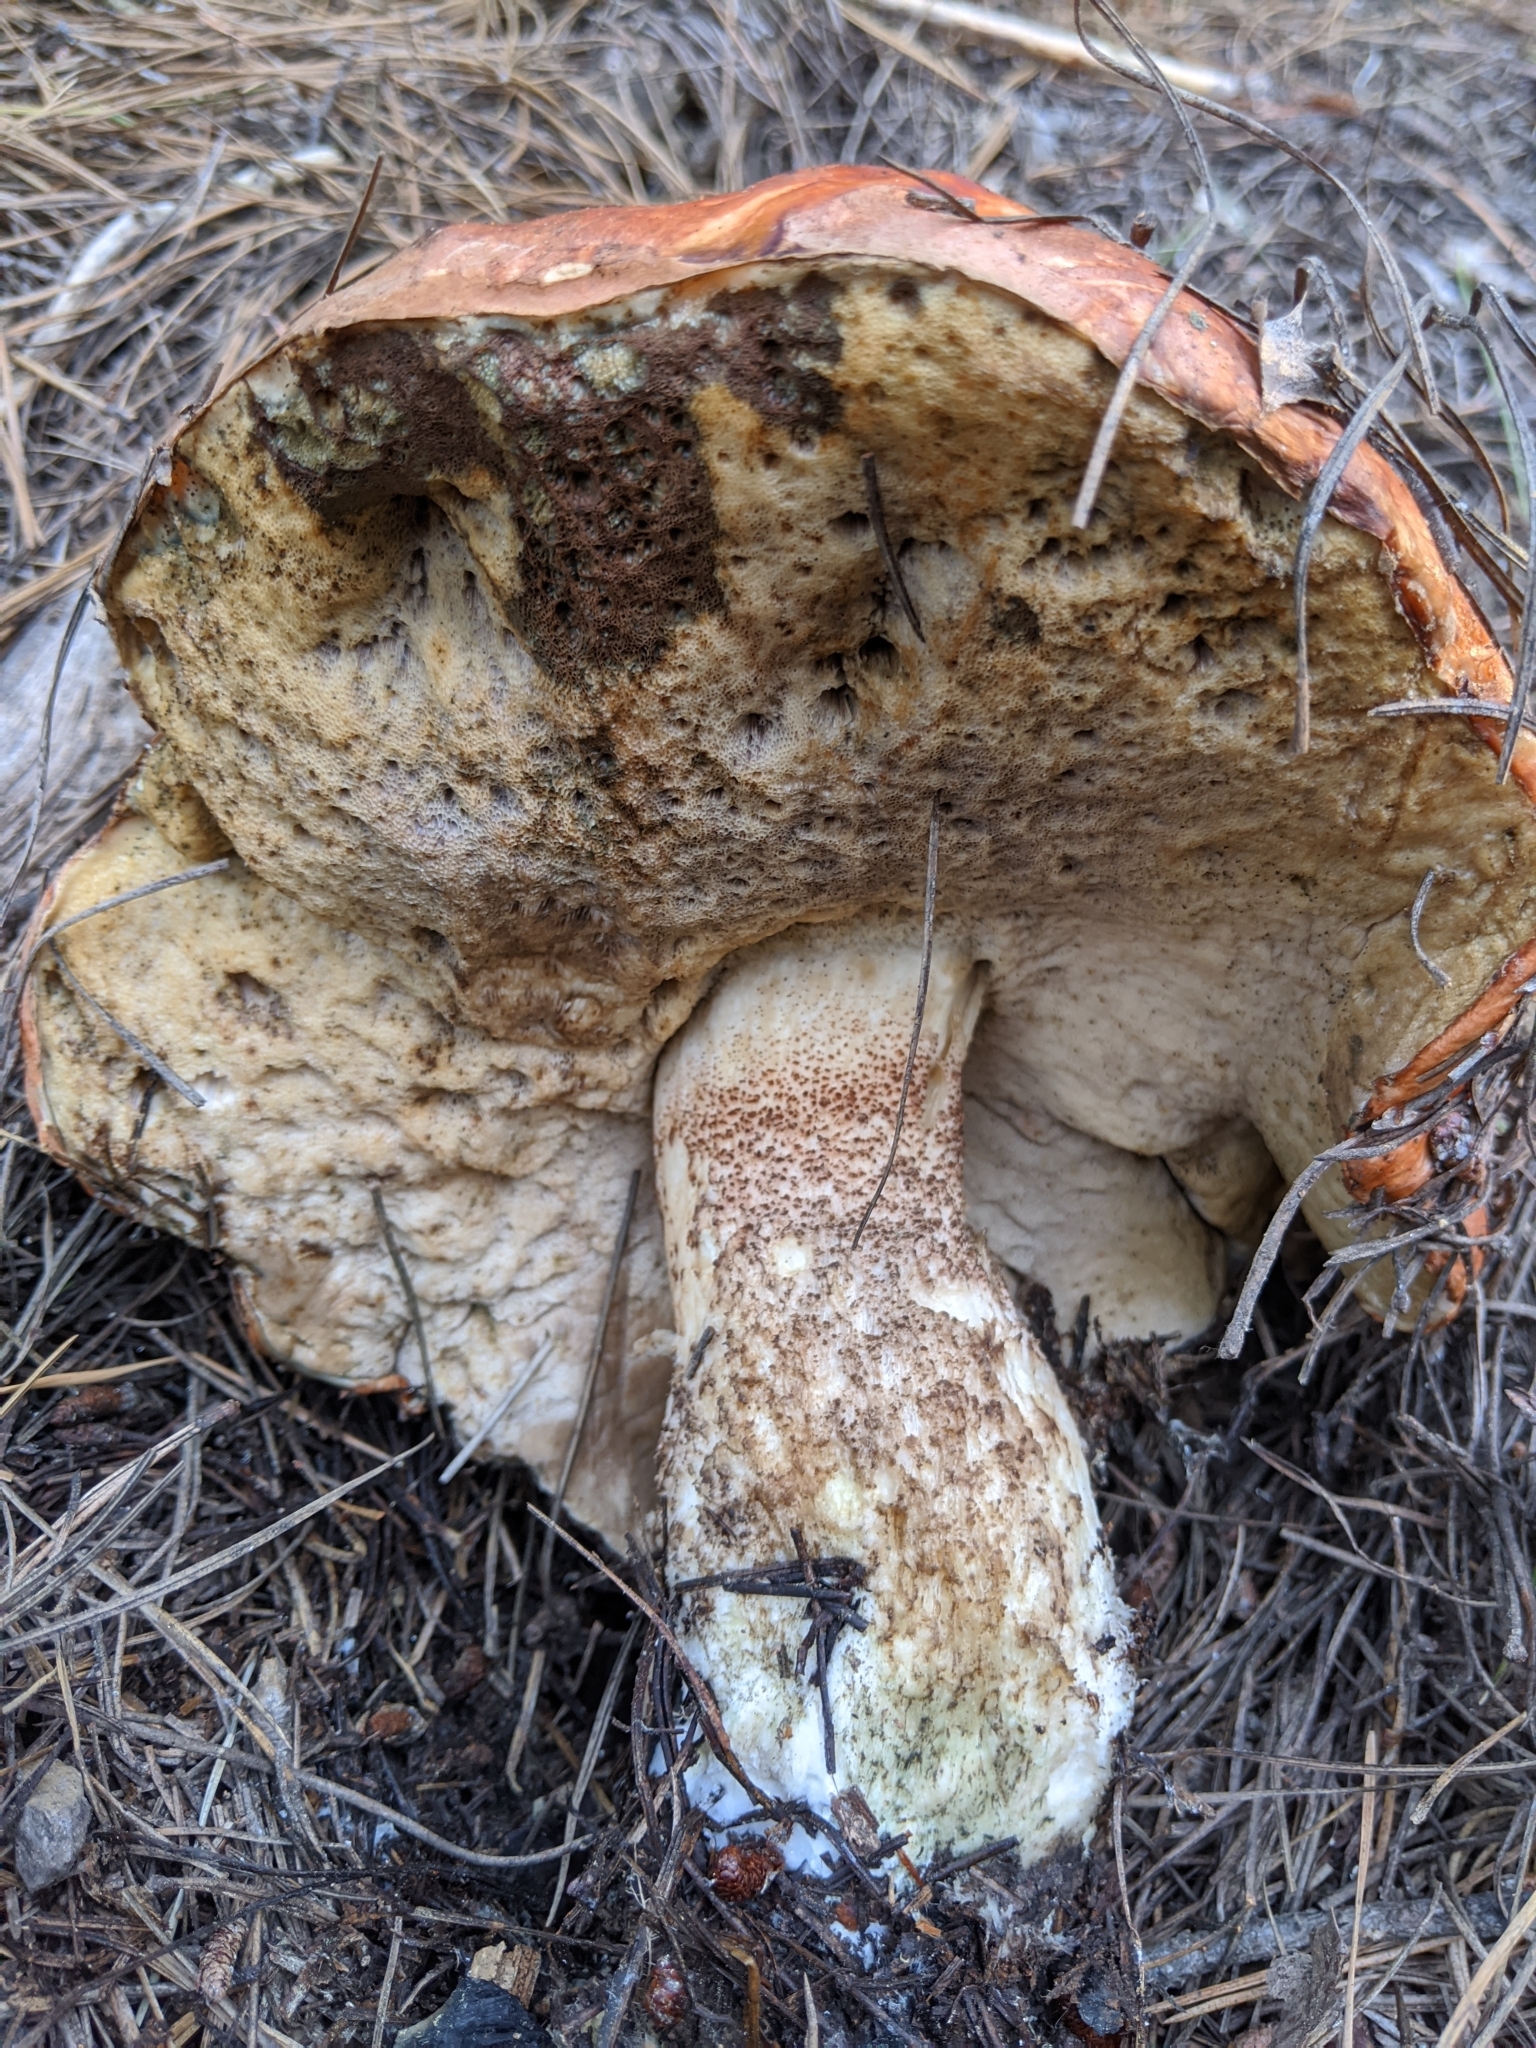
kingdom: Fungi
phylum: Basidiomycota
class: Agaricomycetes
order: Boletales
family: Boletaceae
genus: Leccinum
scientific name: Leccinum manzanitae
